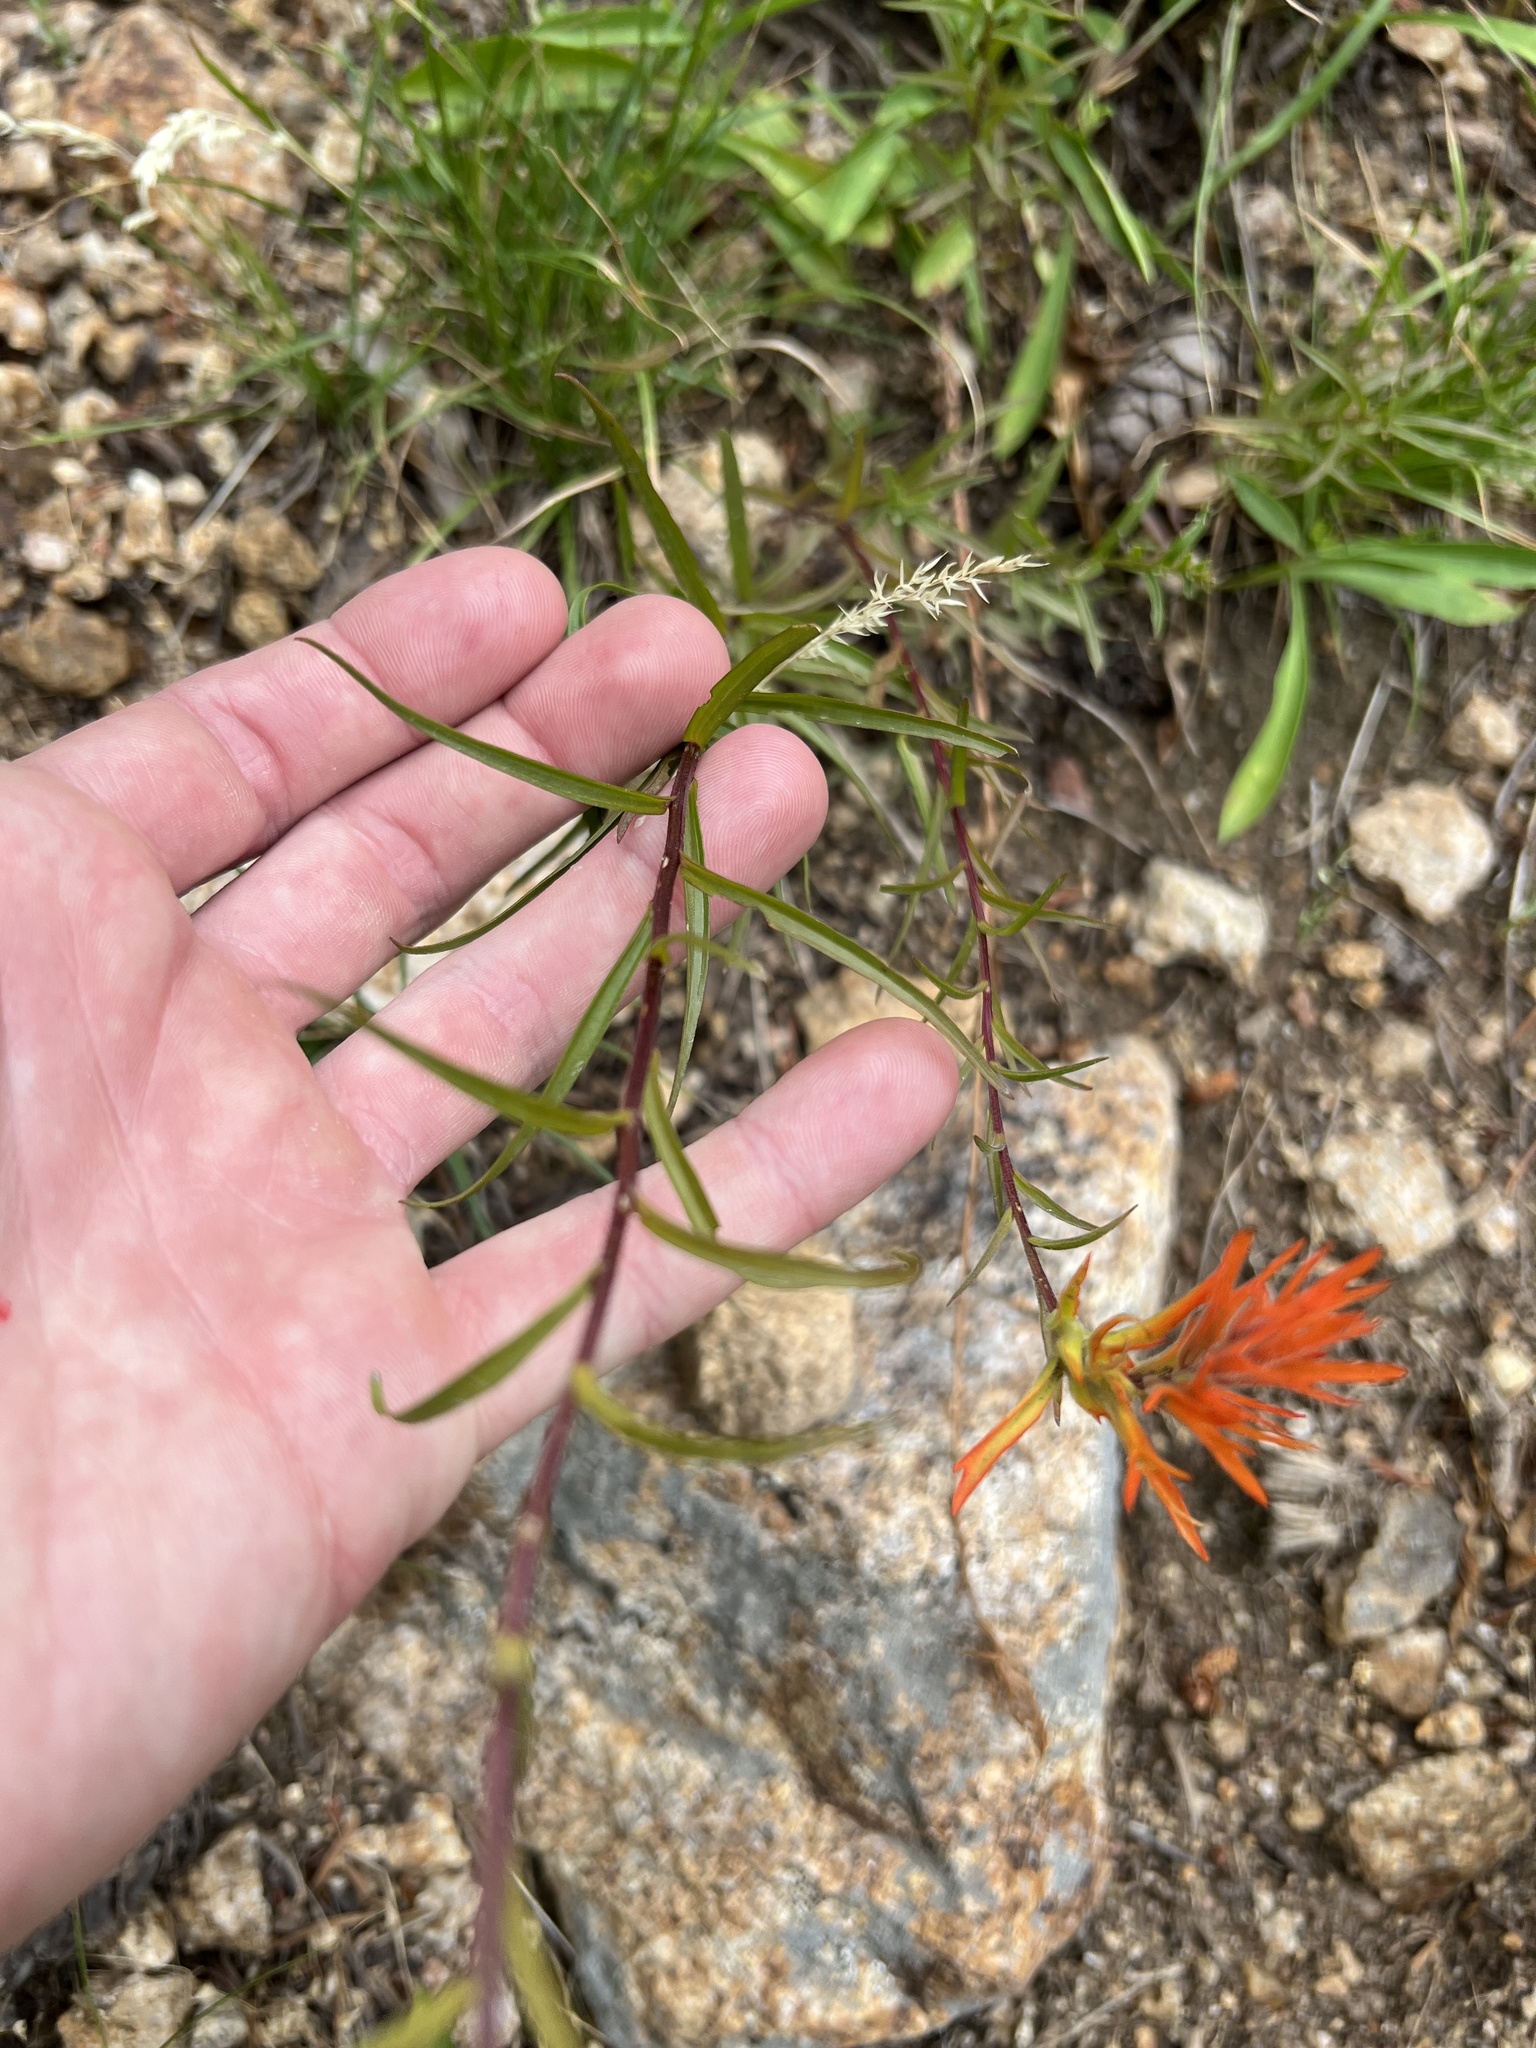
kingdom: Plantae
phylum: Tracheophyta
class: Magnoliopsida
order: Lamiales
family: Orobanchaceae
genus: Castilleja
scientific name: Castilleja linariifolia
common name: Wyoming paintbrush
